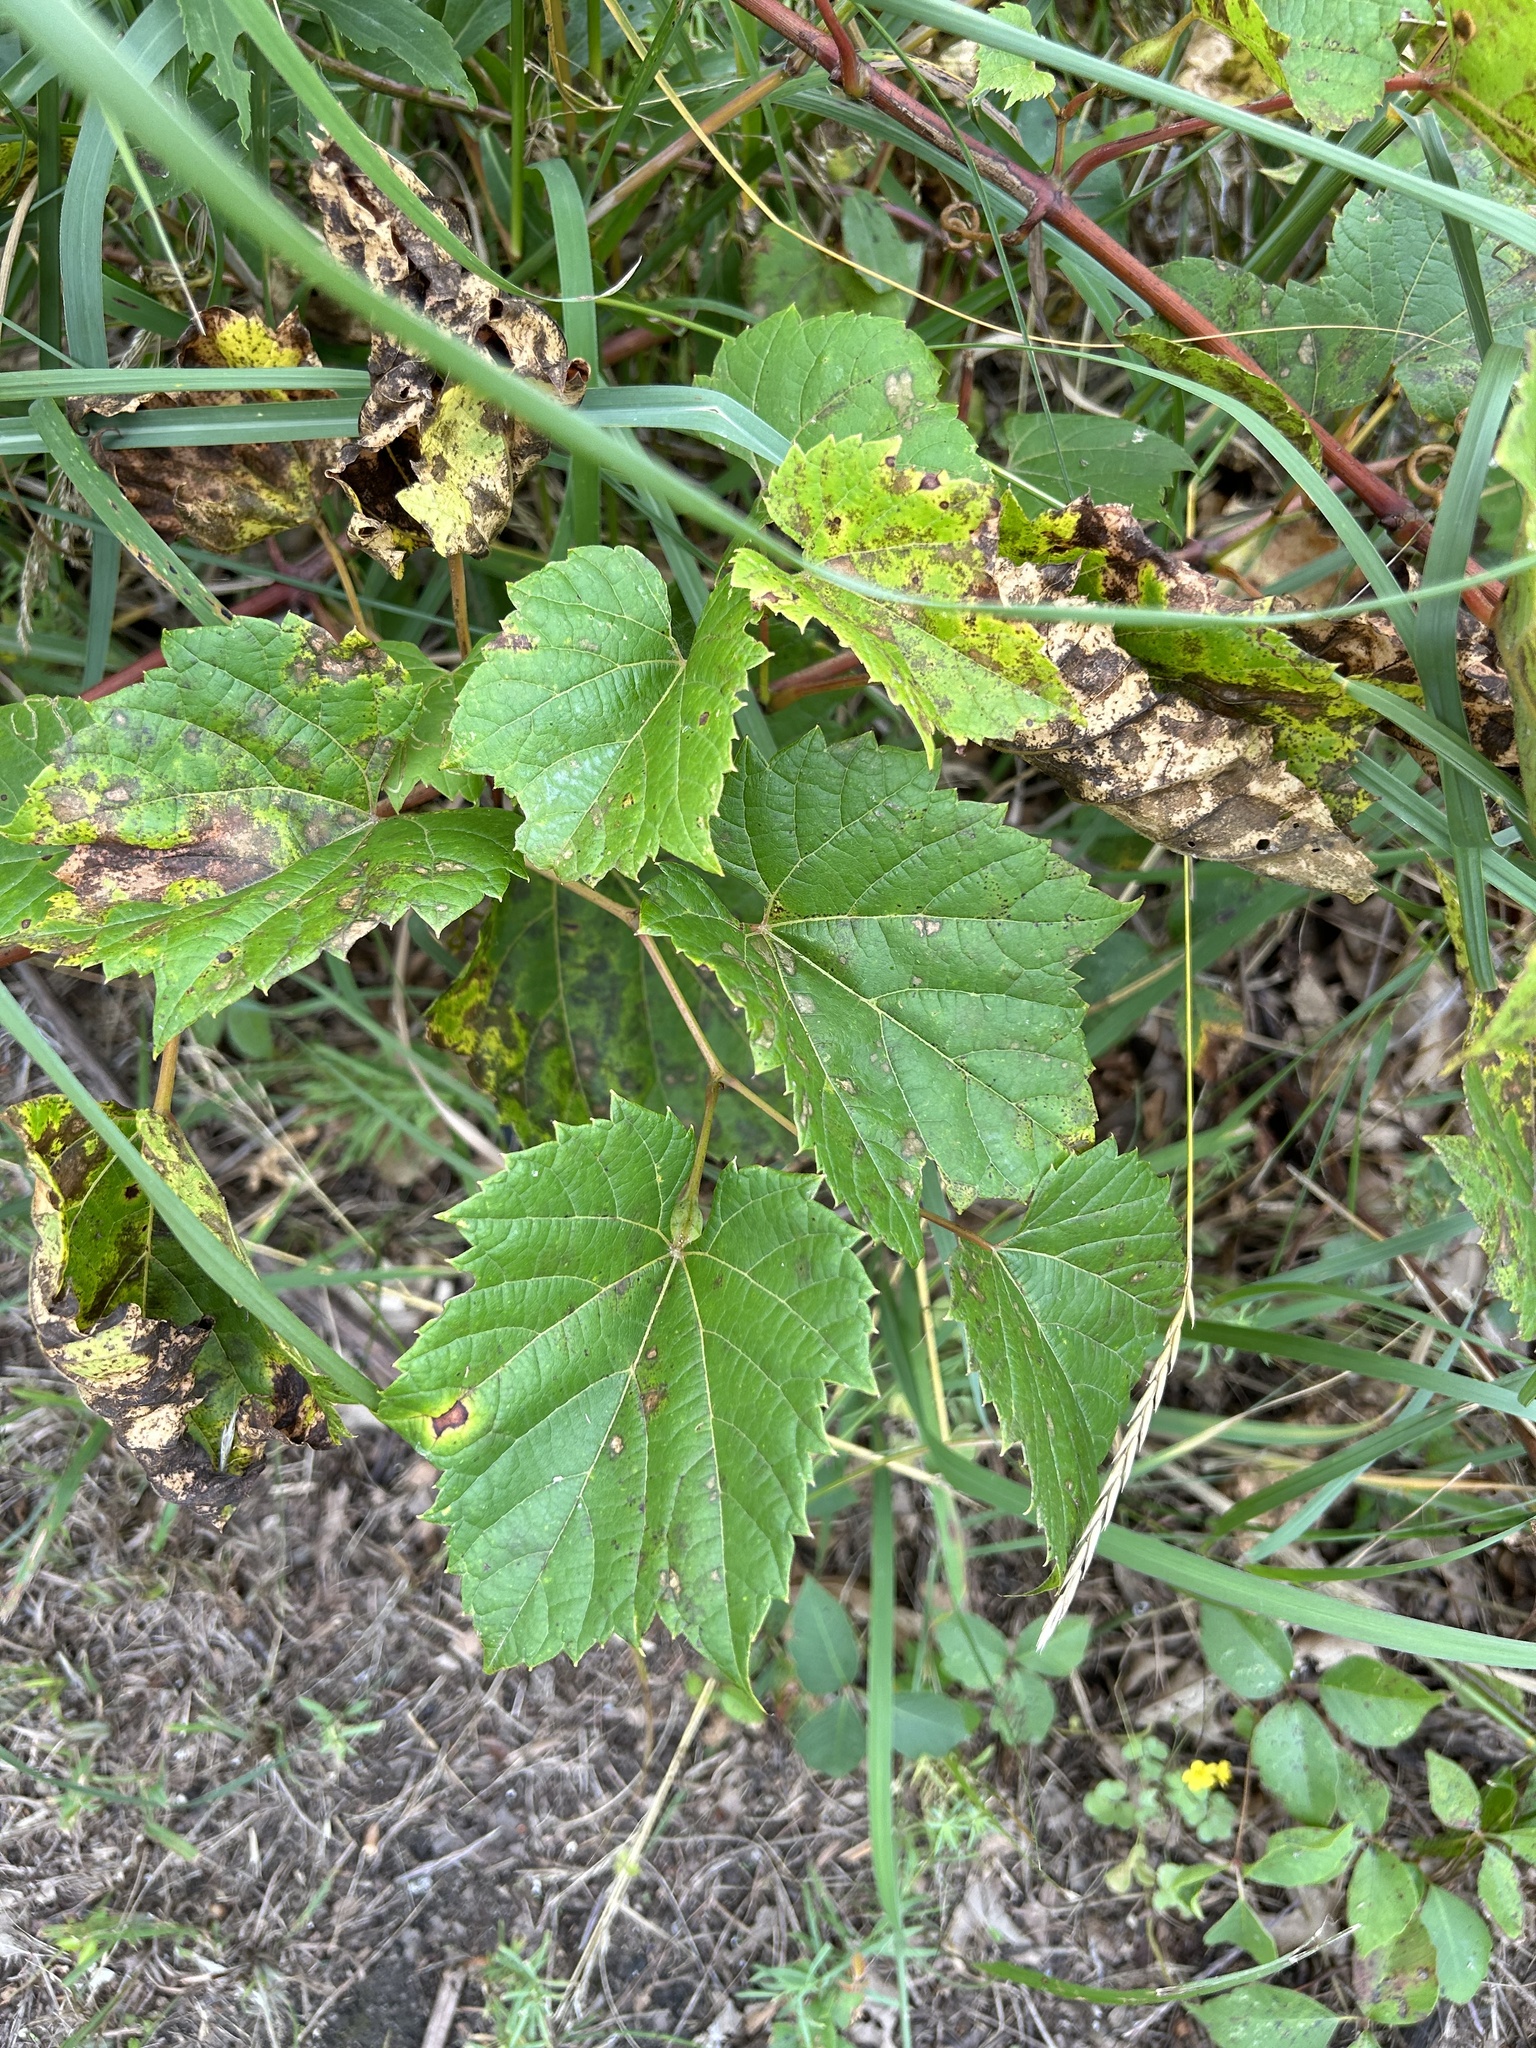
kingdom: Plantae
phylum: Tracheophyta
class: Magnoliopsida
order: Vitales
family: Vitaceae
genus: Vitis
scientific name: Vitis riparia
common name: Frost grape
